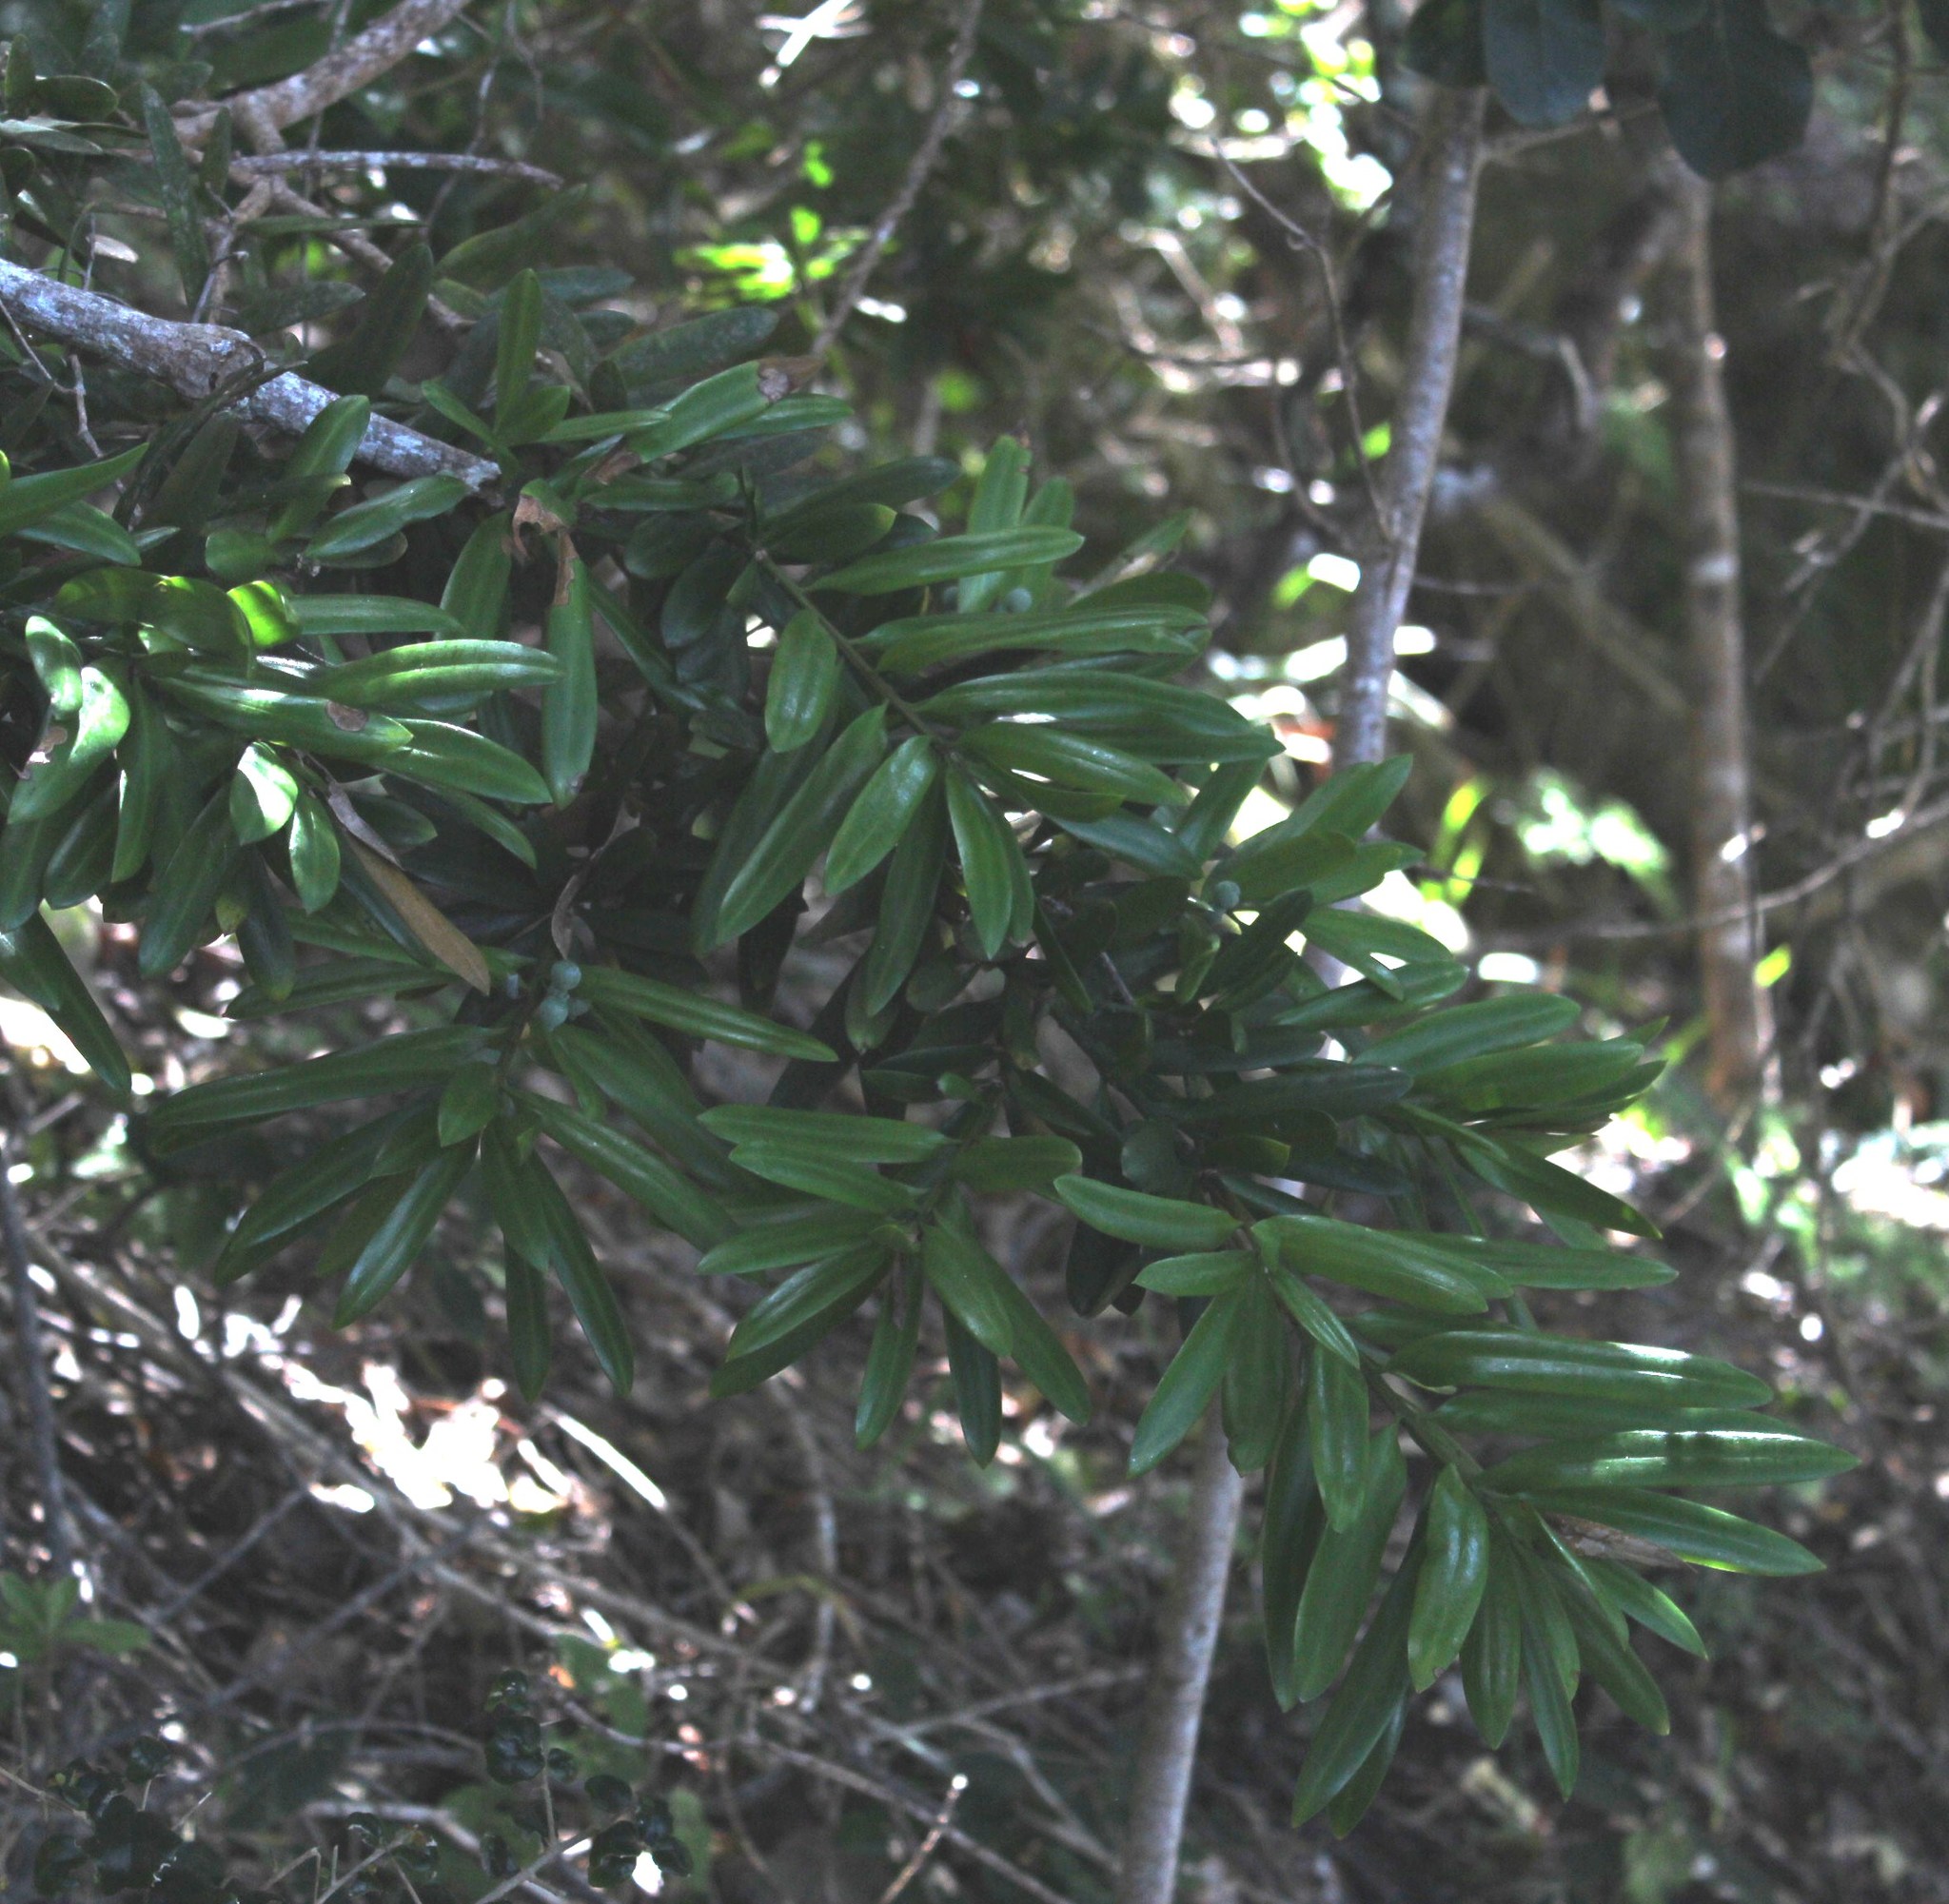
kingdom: Plantae
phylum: Tracheophyta
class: Pinopsida
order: Pinales
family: Podocarpaceae
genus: Podocarpus
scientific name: Podocarpus latifolius
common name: True yellowwood
